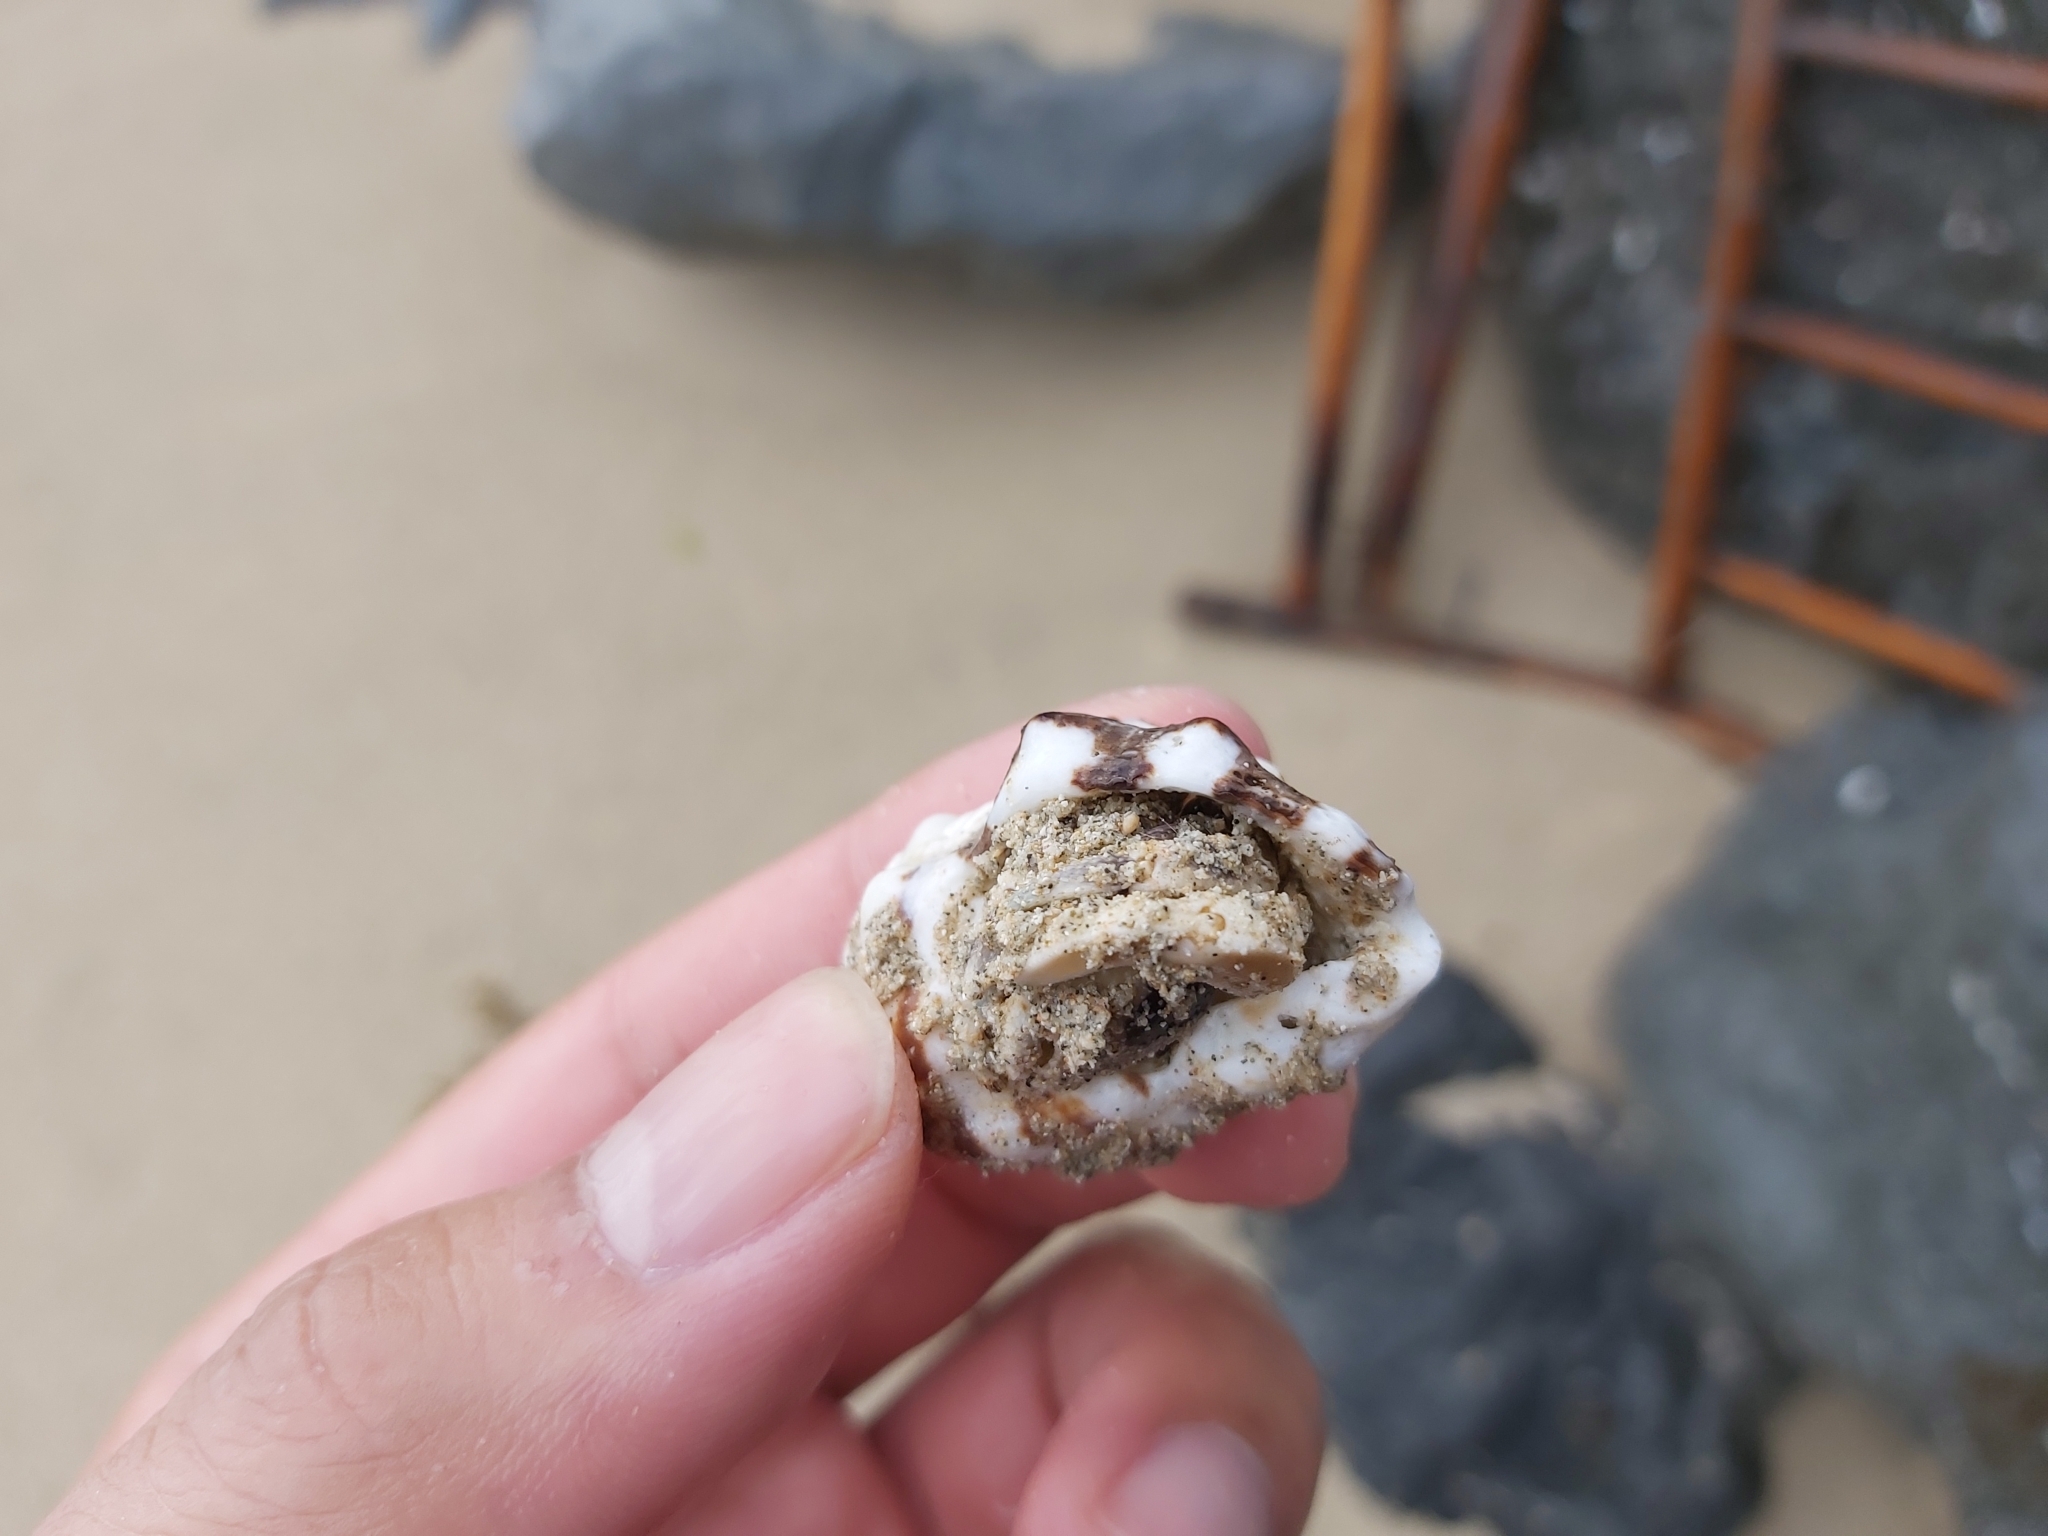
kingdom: Animalia
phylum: Arthropoda
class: Malacostraca
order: Decapoda
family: Coenobitidae
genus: Coenobita
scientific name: Coenobita rugosus
